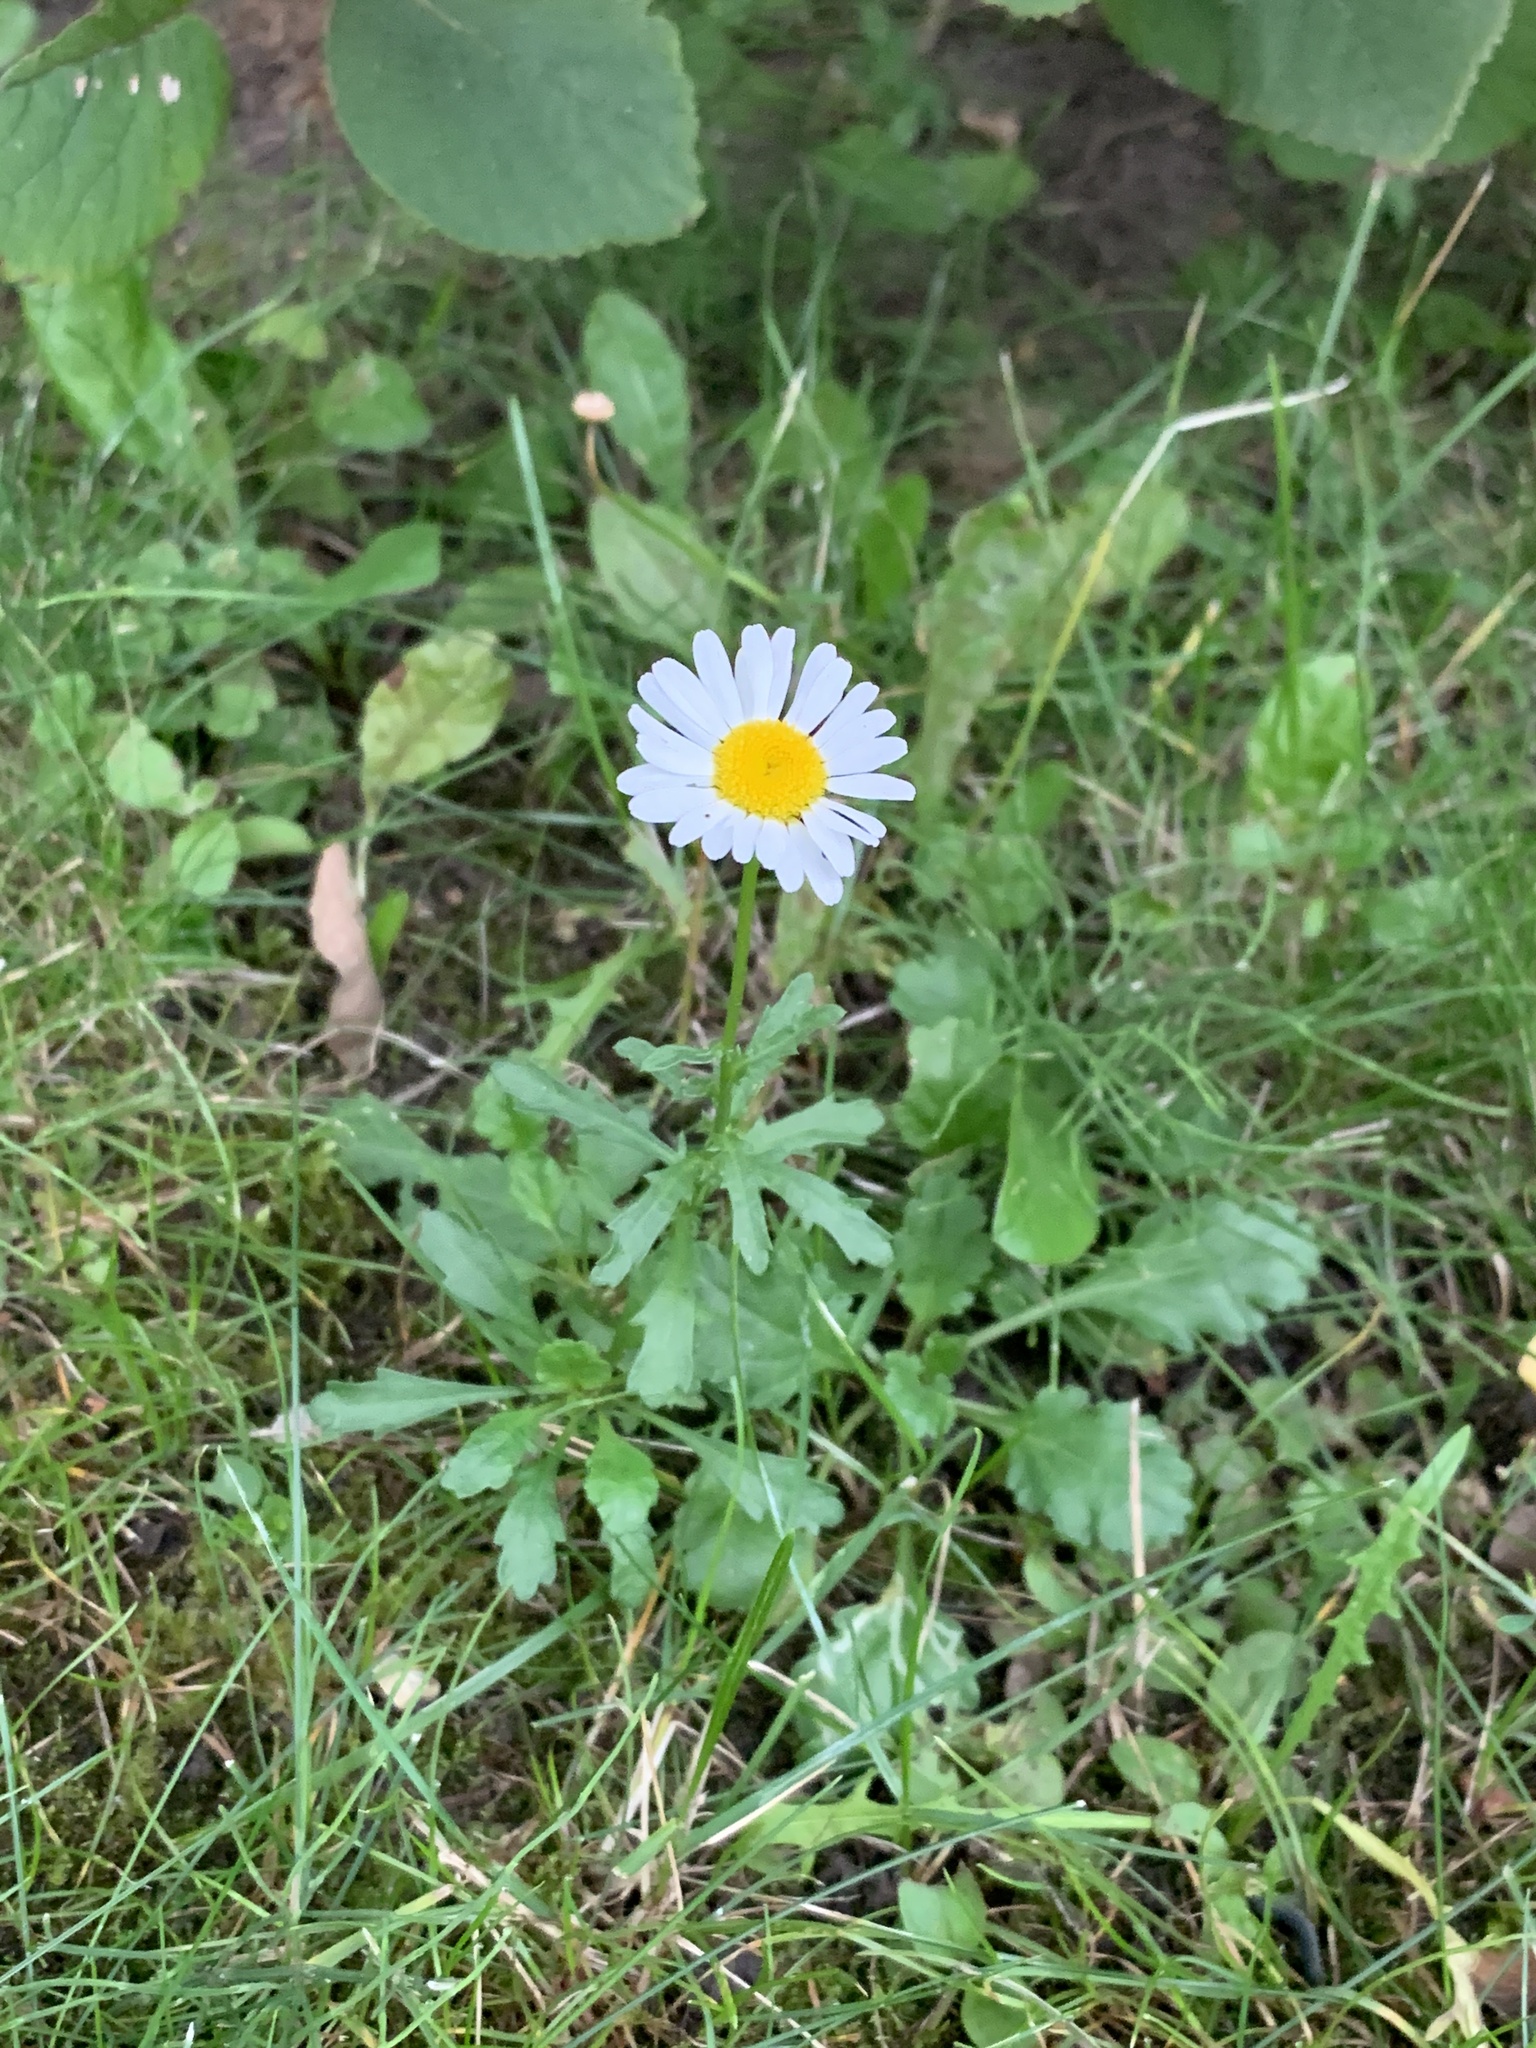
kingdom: Plantae
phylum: Tracheophyta
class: Magnoliopsida
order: Asterales
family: Asteraceae
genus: Leucanthemum
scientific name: Leucanthemum vulgare
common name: Oxeye daisy
